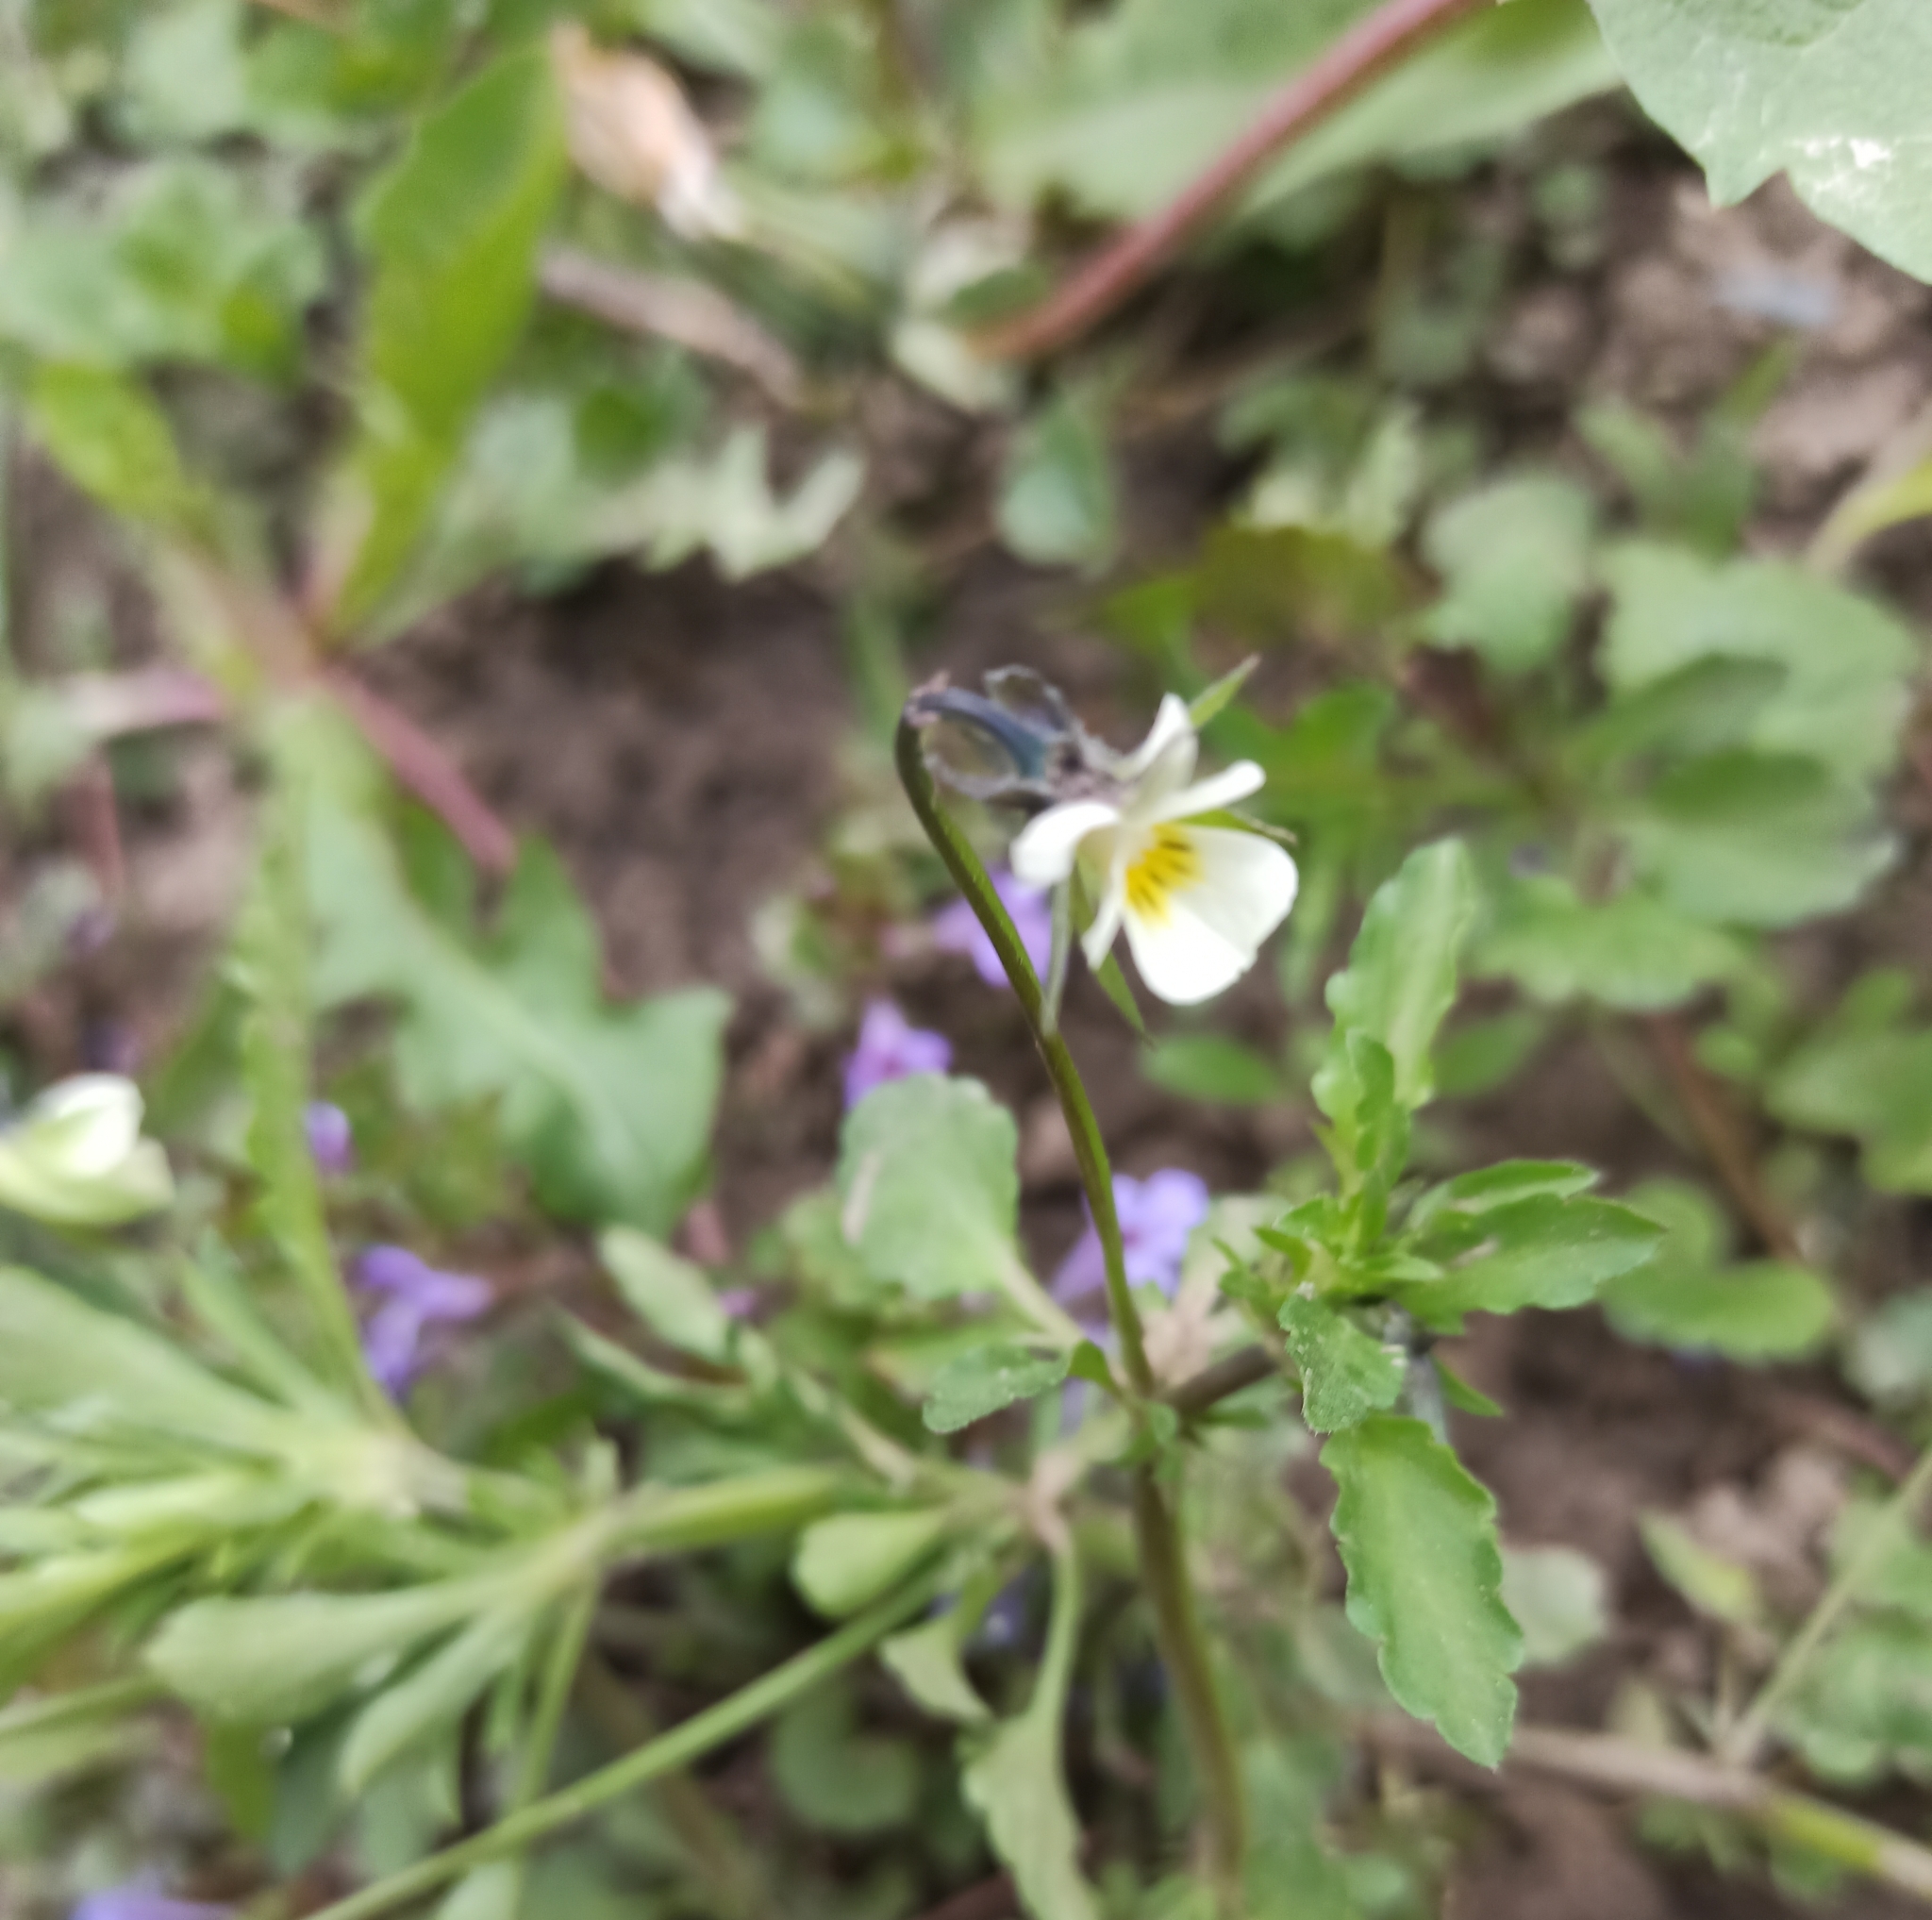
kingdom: Plantae
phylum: Tracheophyta
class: Magnoliopsida
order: Malpighiales
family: Violaceae
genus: Viola
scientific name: Viola arvensis
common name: Field pansy
